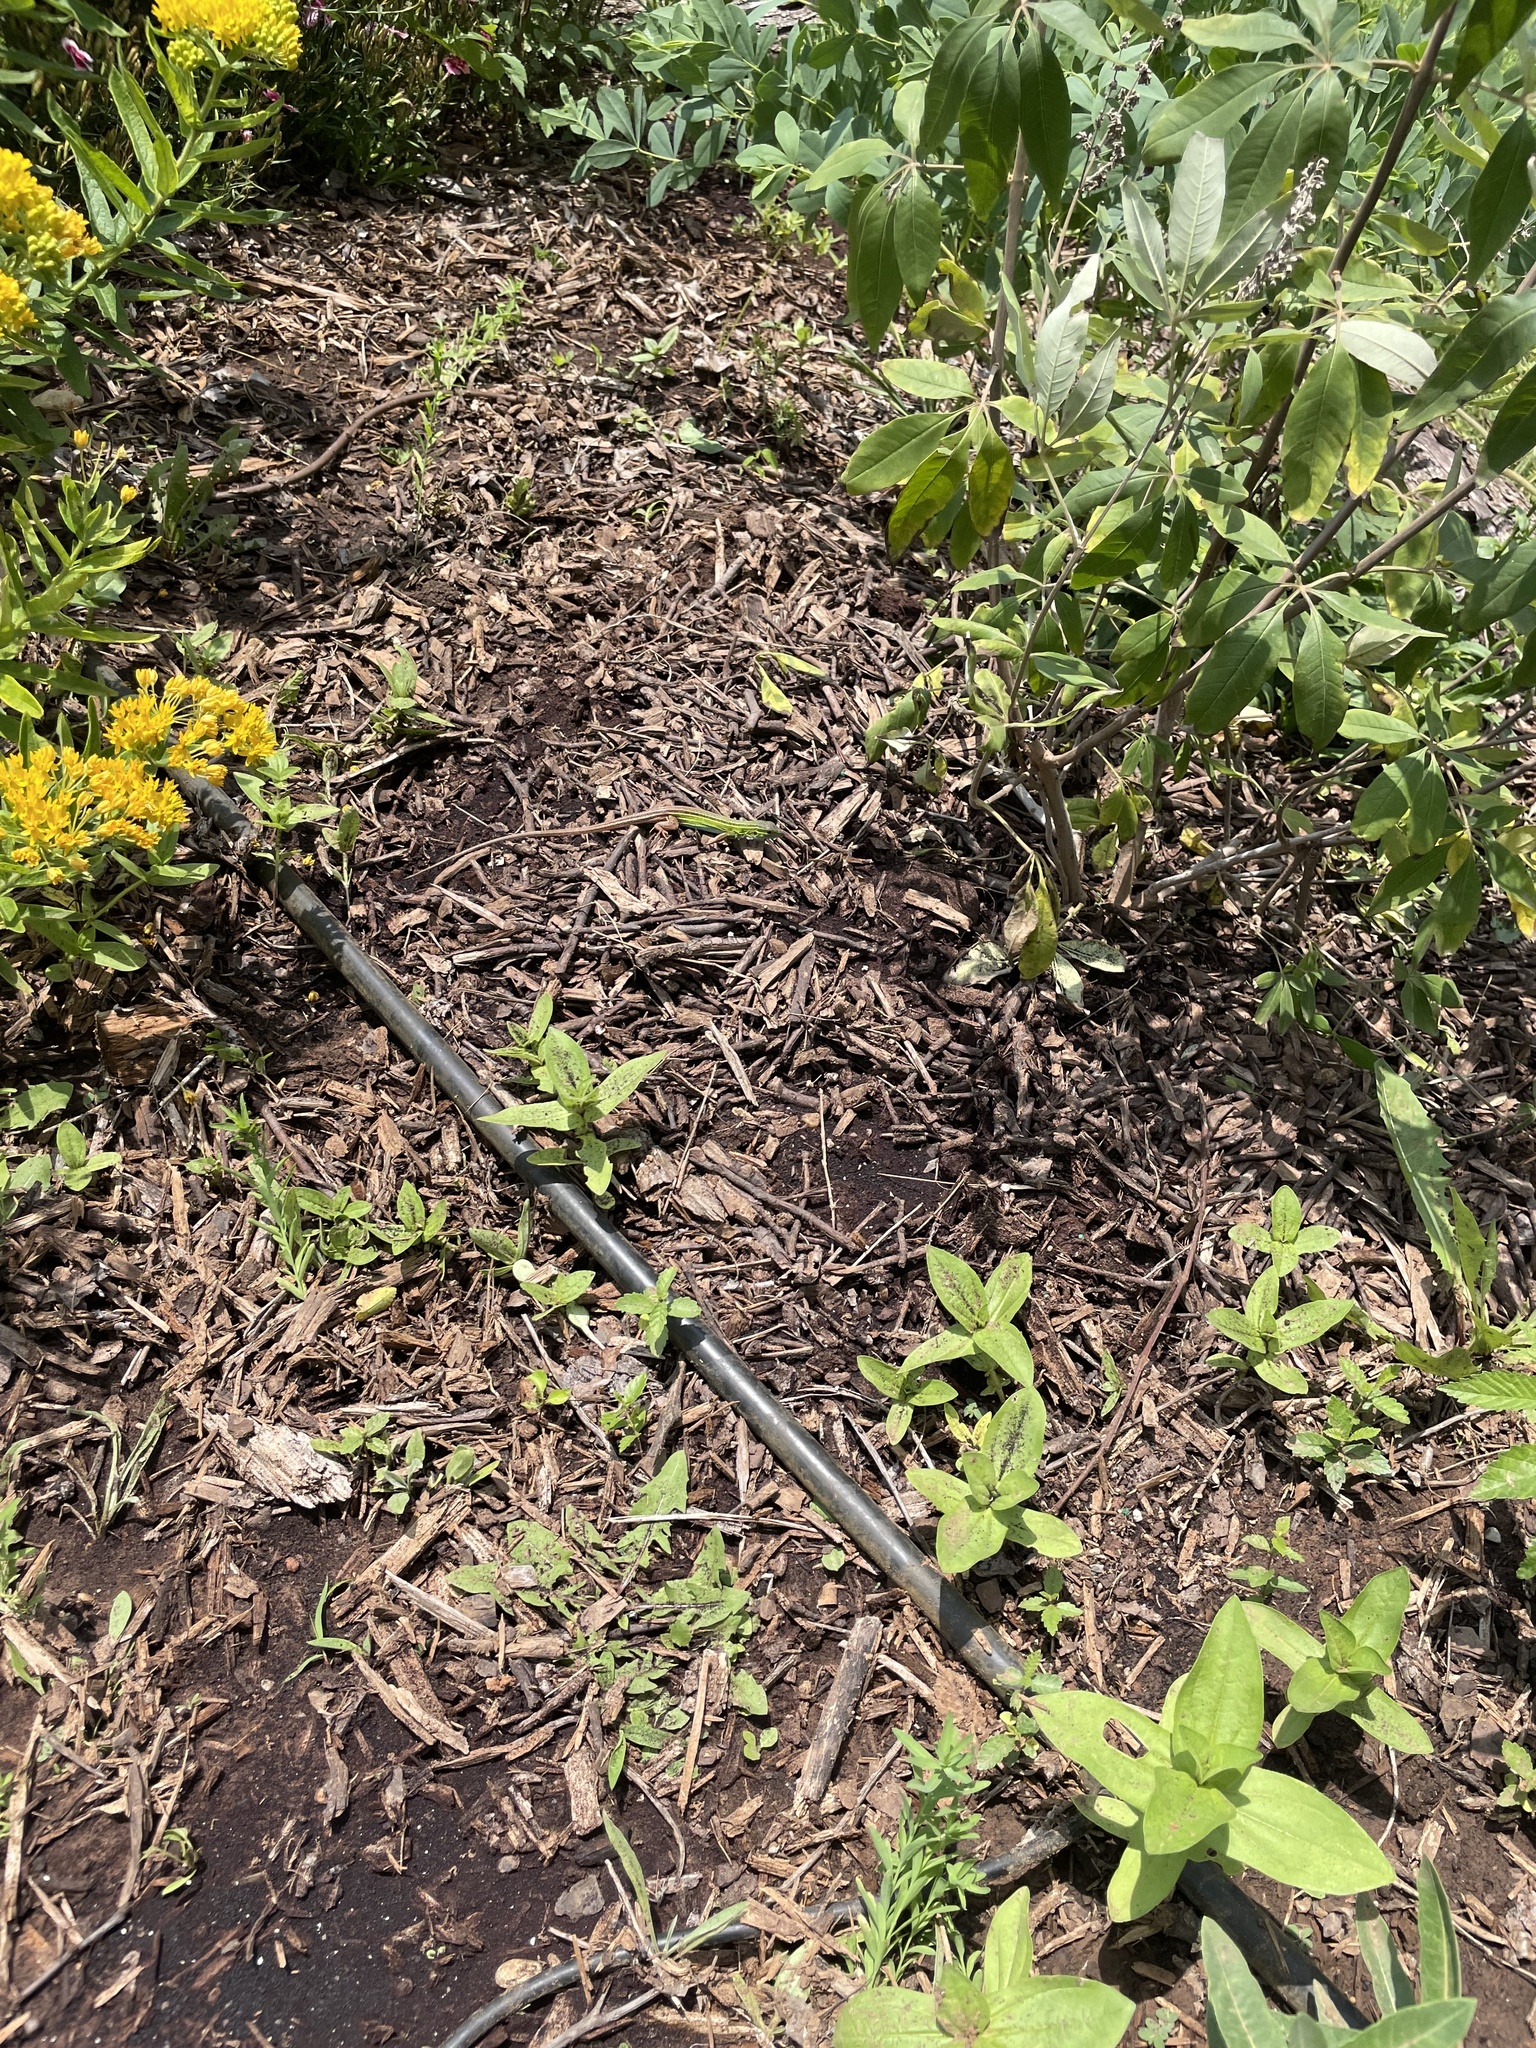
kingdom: Animalia
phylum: Chordata
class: Squamata
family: Teiidae
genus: Aspidoscelis
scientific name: Aspidoscelis sexlineatus
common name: Six-lined racerunner
